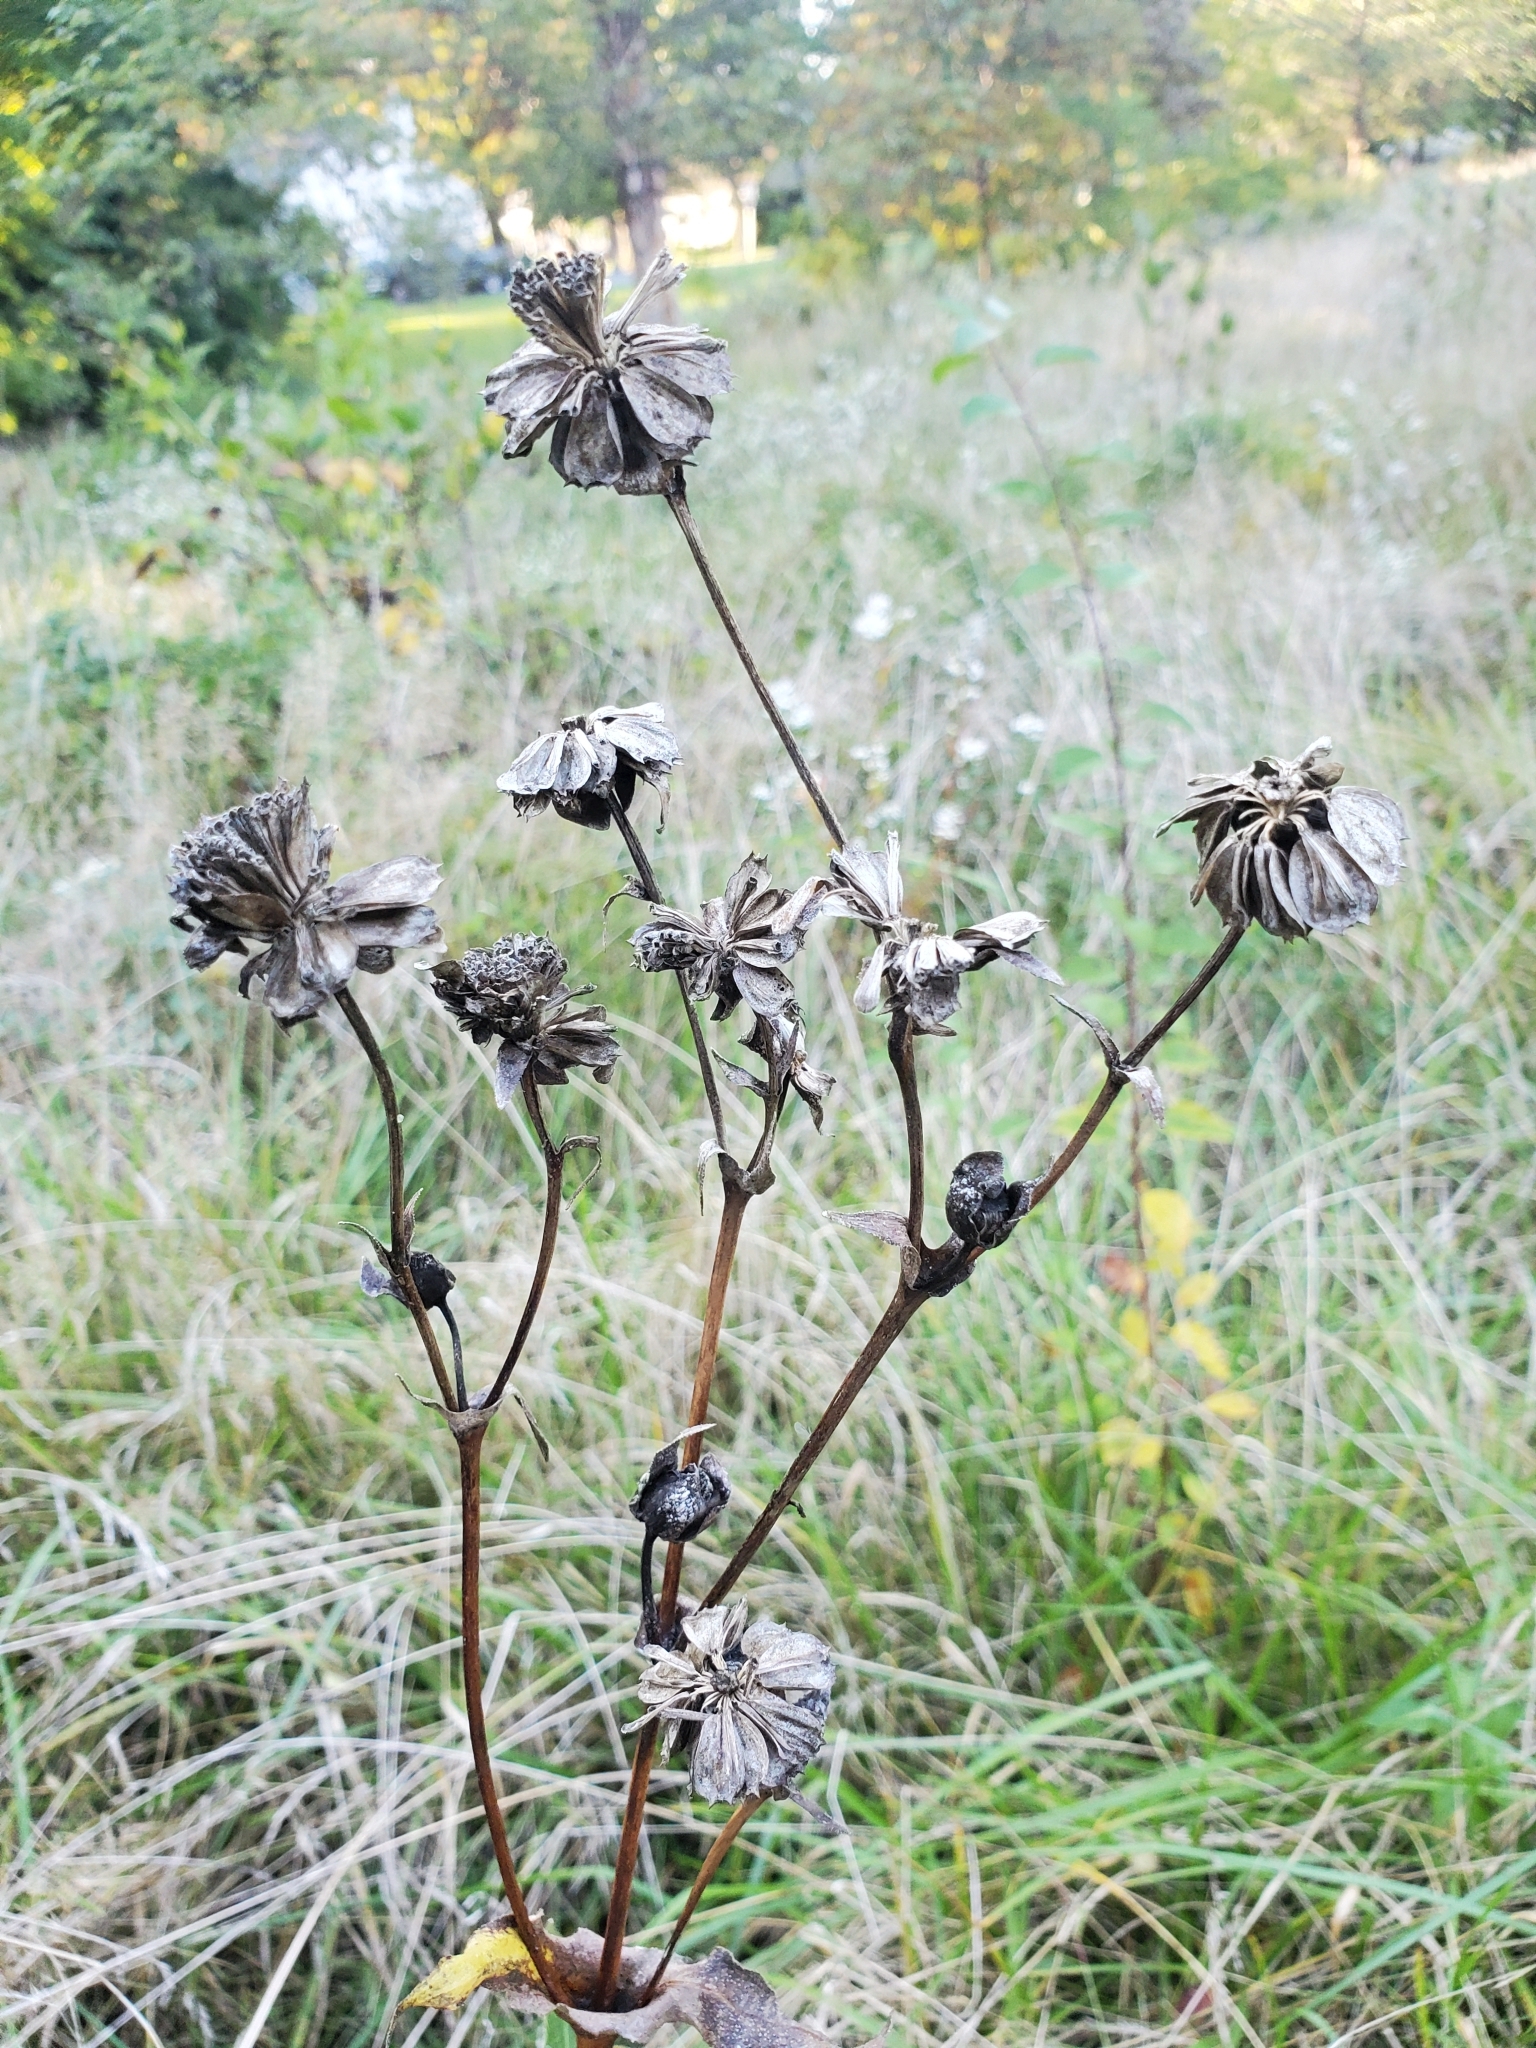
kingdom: Plantae
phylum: Tracheophyta
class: Magnoliopsida
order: Asterales
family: Asteraceae
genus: Silphium
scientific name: Silphium perfoliatum
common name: Cup-plant
